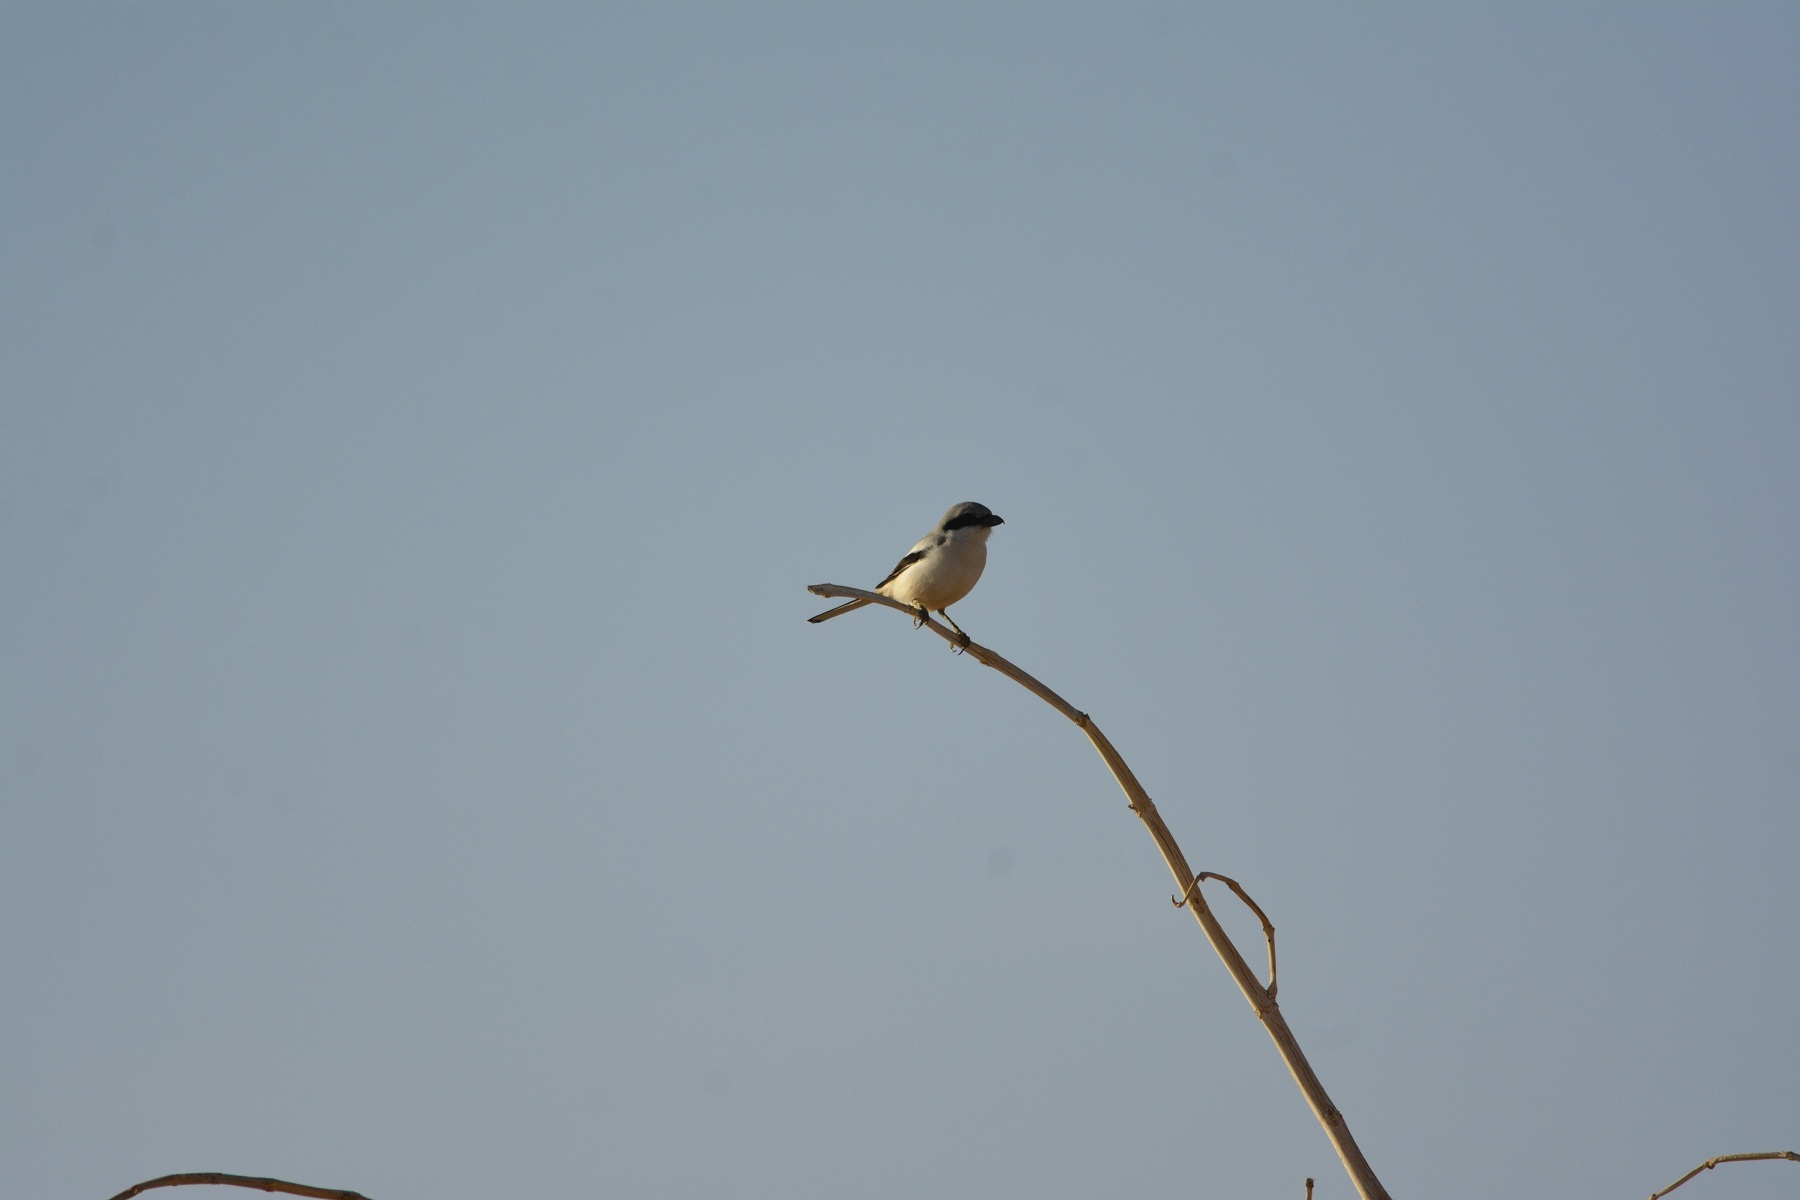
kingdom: Animalia
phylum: Chordata
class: Aves
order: Passeriformes
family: Laniidae
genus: Lanius
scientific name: Lanius excubitor
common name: Great grey shrike
